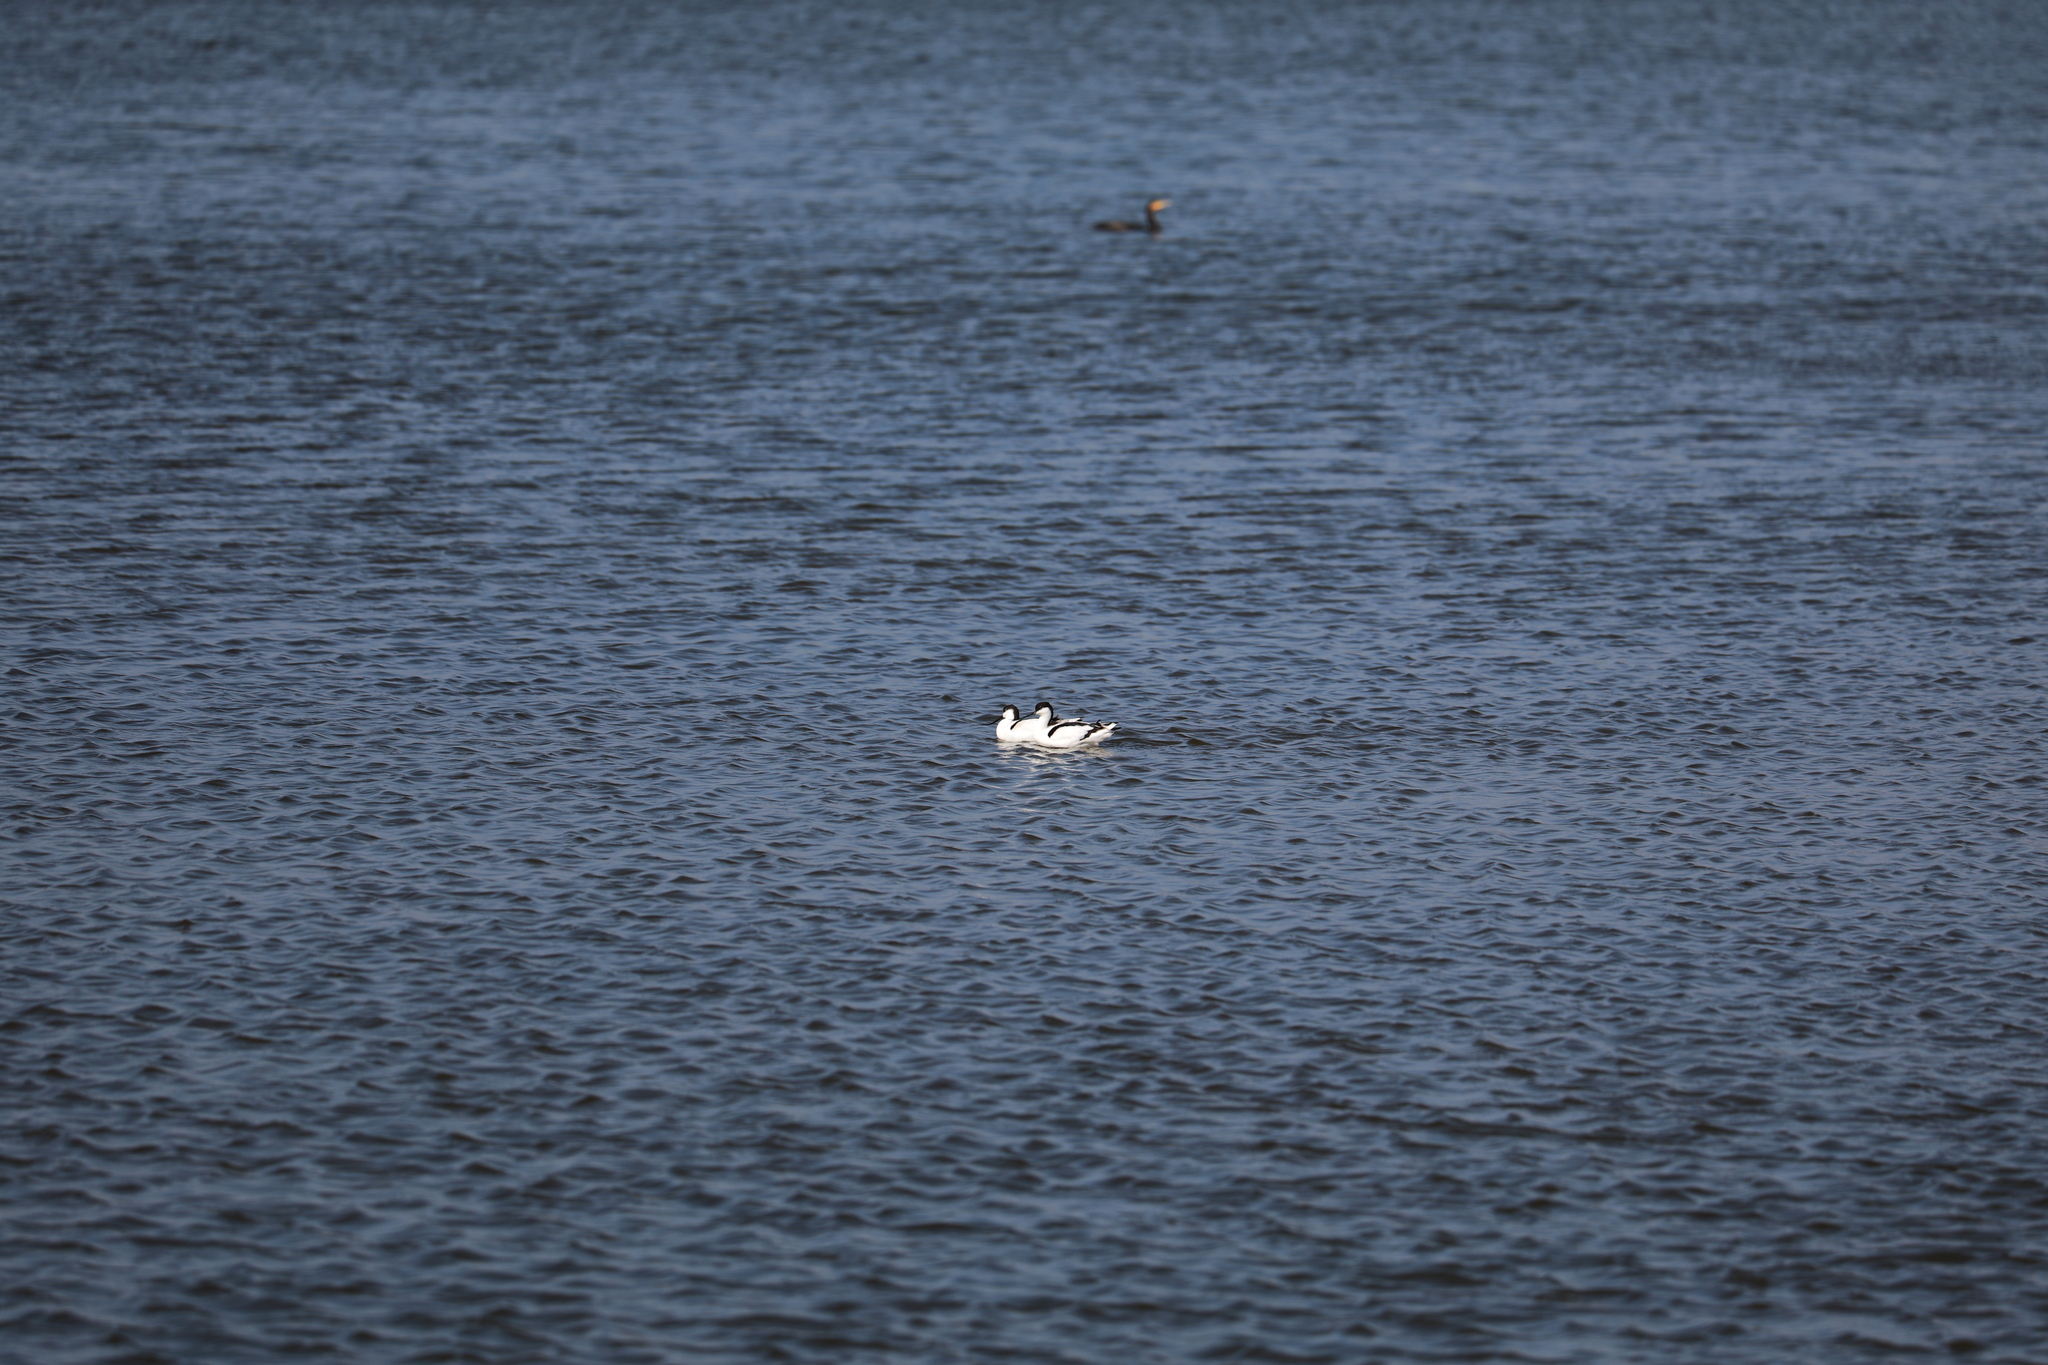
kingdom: Animalia
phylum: Chordata
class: Aves
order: Charadriiformes
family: Recurvirostridae
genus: Recurvirostra
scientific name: Recurvirostra avosetta
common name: Pied avocet
